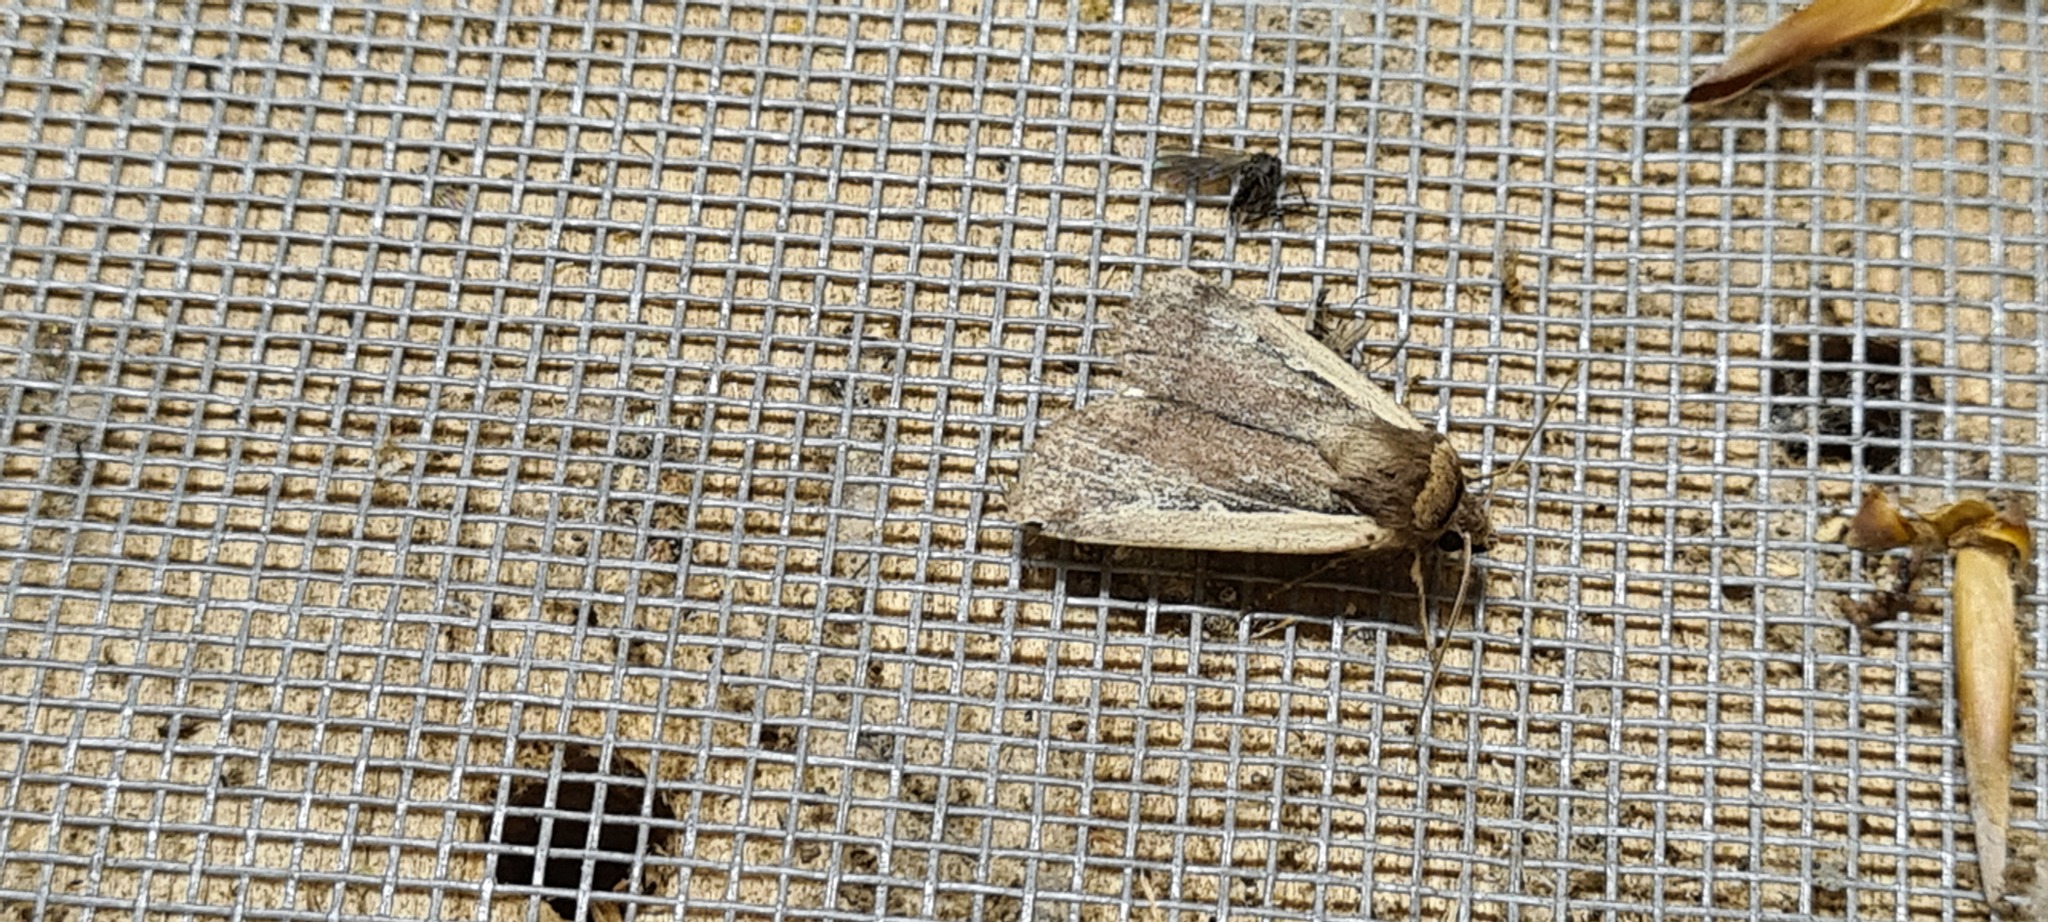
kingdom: Animalia
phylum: Arthropoda
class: Insecta
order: Lepidoptera
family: Noctuidae
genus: Ochropleura
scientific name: Ochropleura plecta
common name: Flame shoulder
